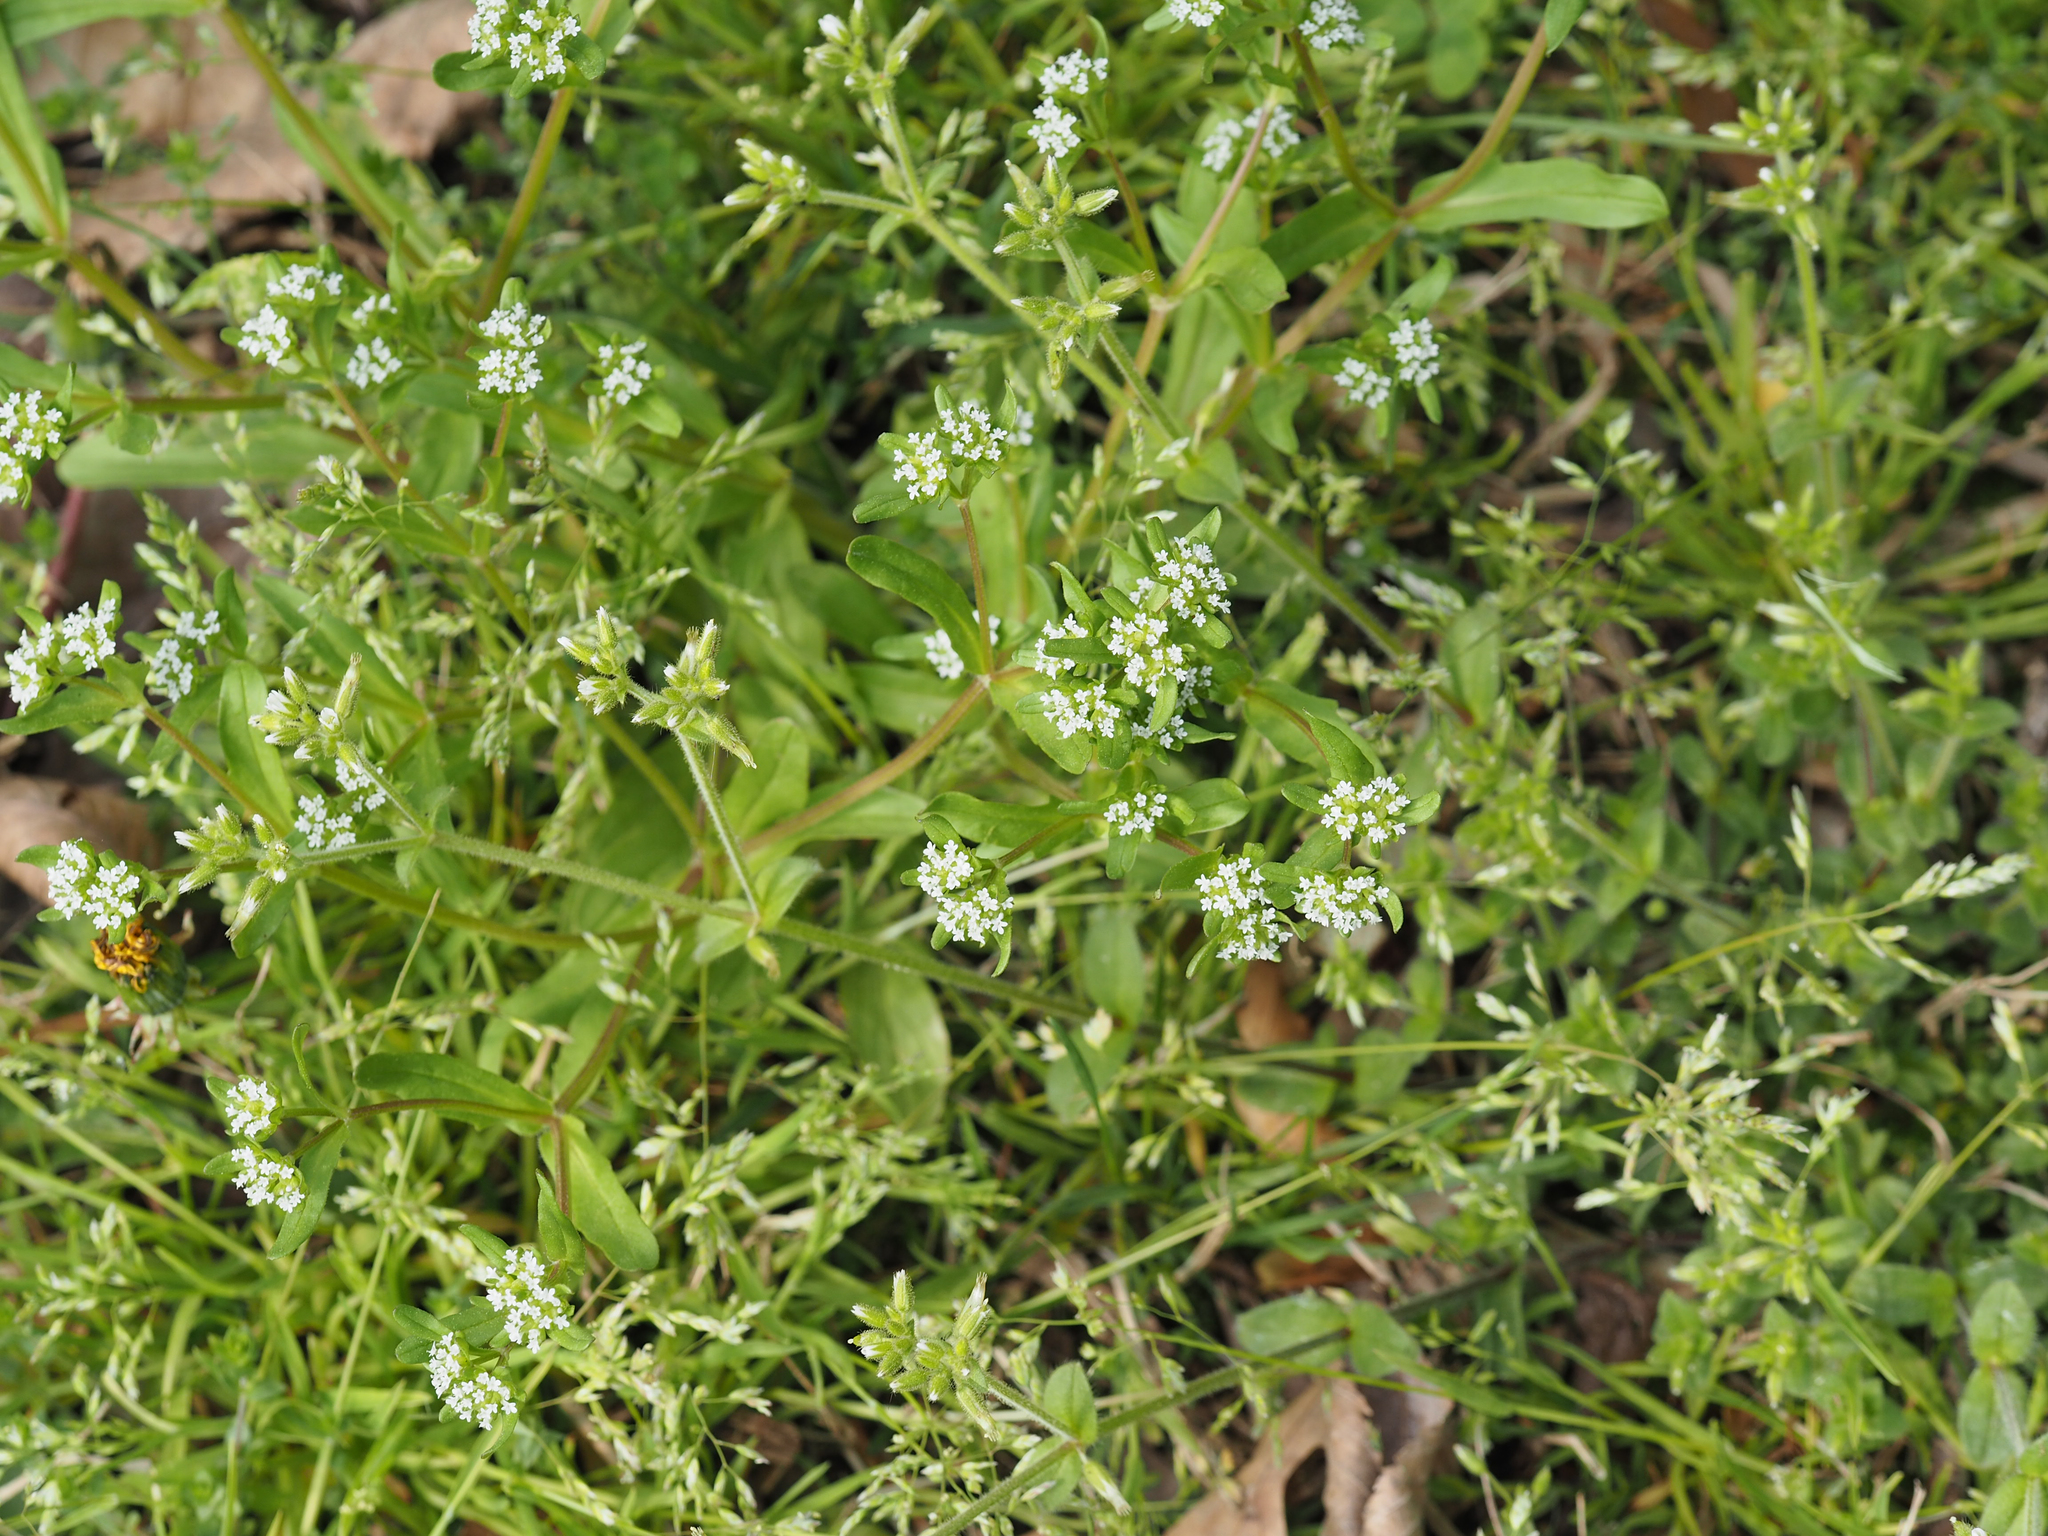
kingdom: Plantae
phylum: Tracheophyta
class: Magnoliopsida
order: Dipsacales
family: Caprifoliaceae
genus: Valerianella
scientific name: Valerianella locusta
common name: Common cornsalad
